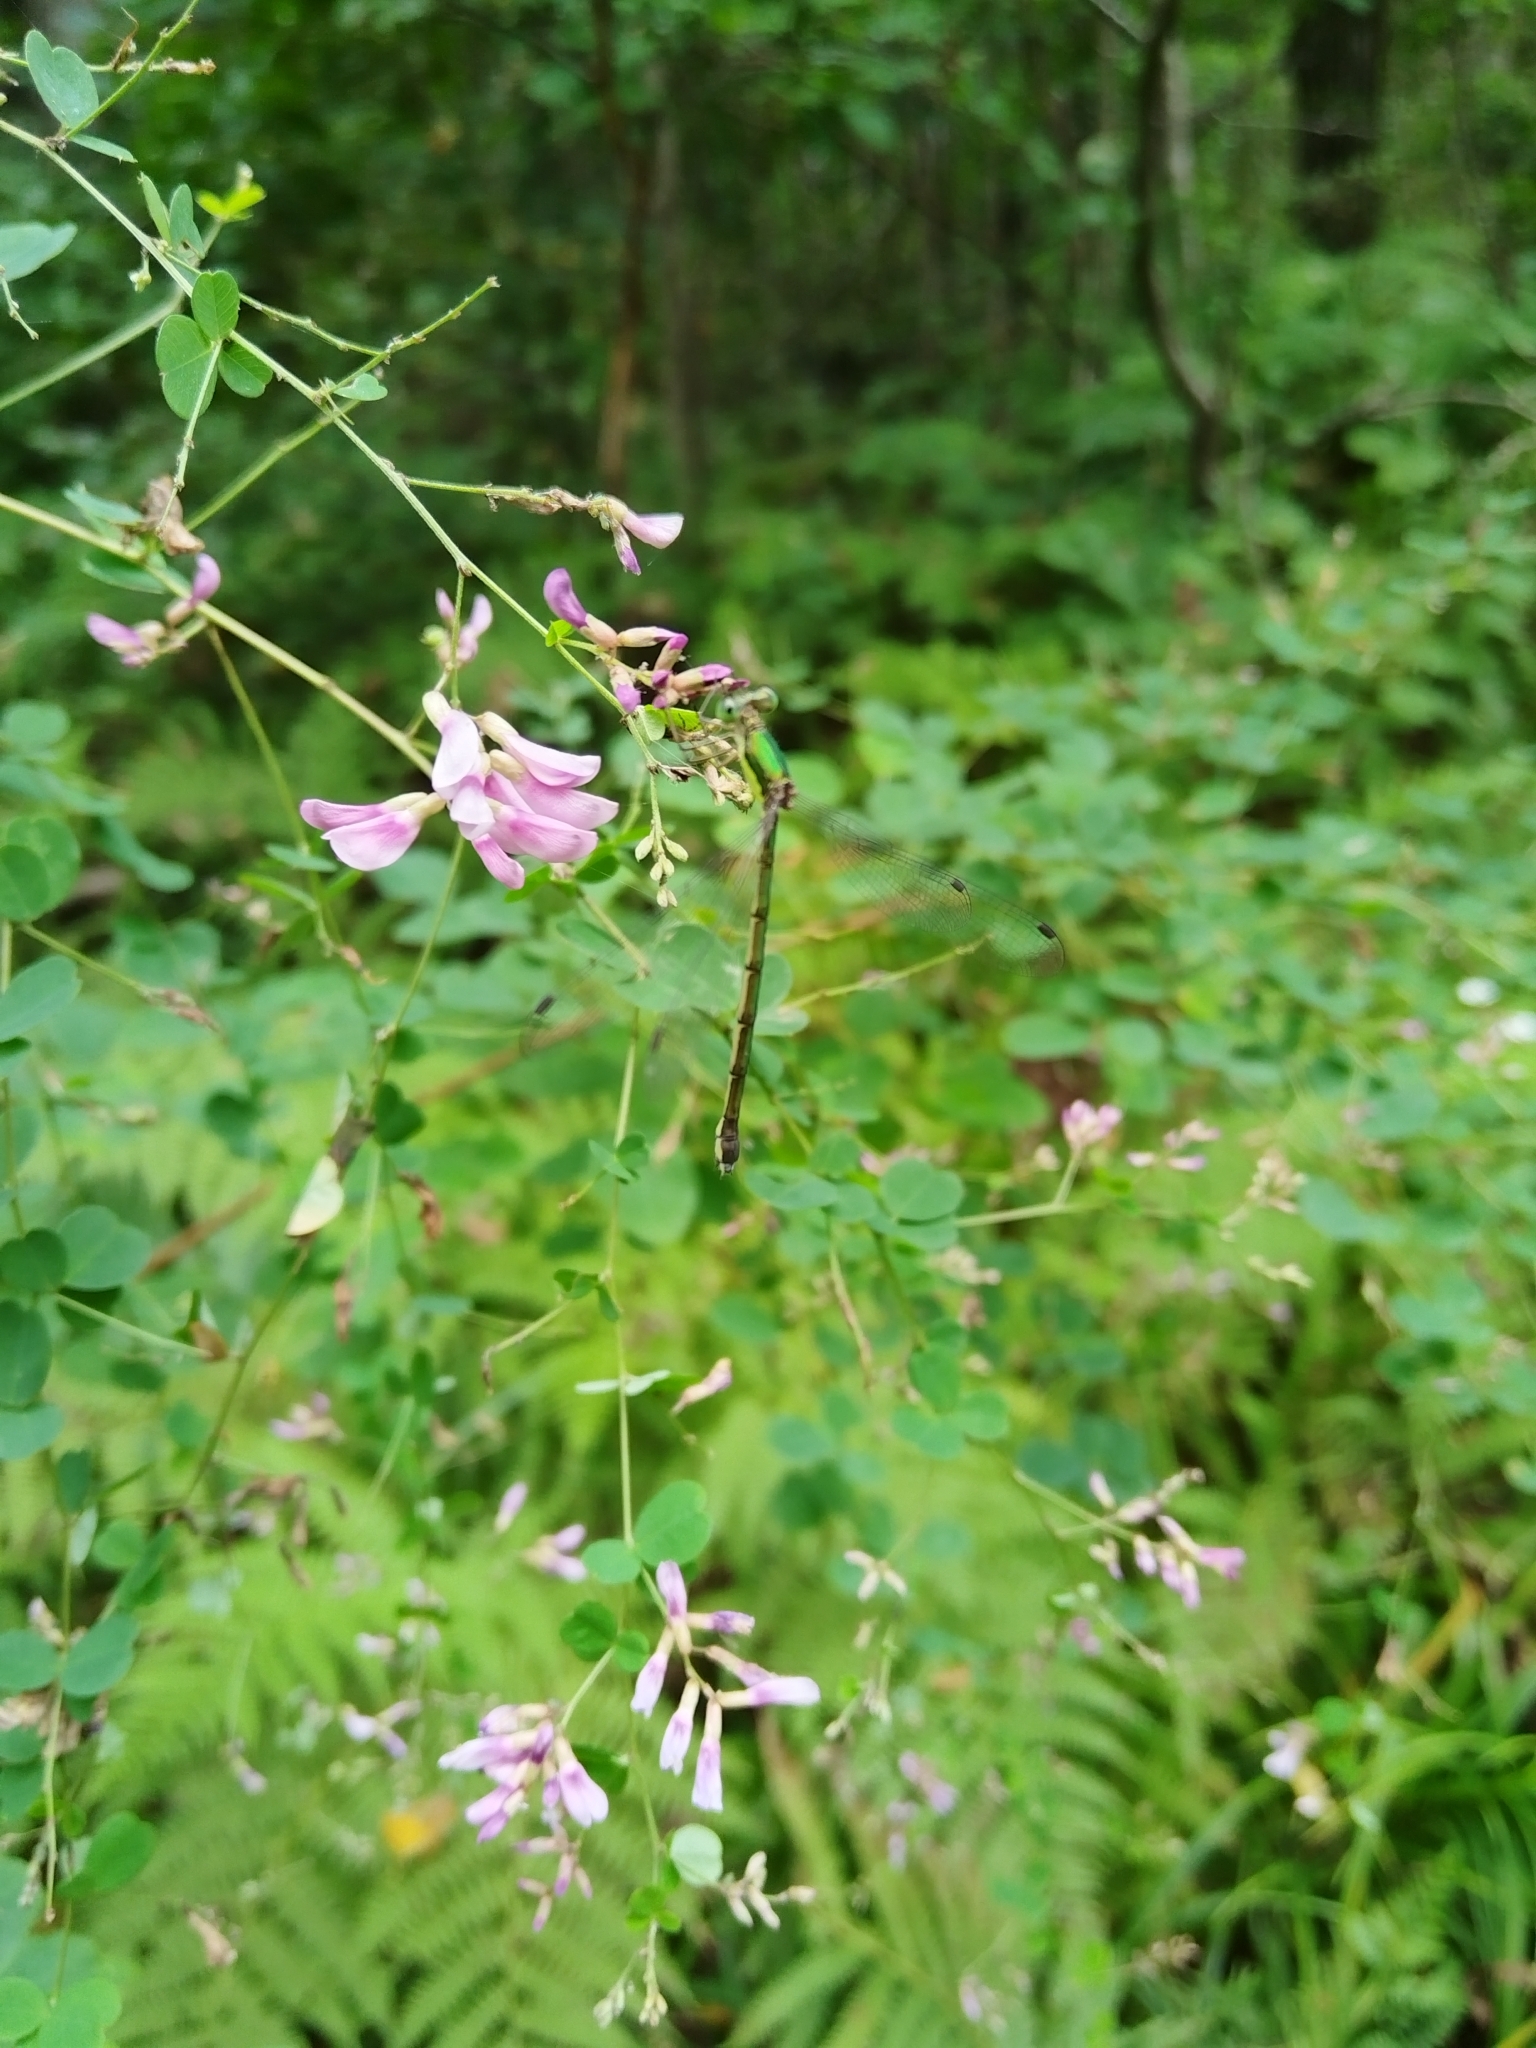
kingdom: Plantae
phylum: Tracheophyta
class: Magnoliopsida
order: Fabales
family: Fabaceae
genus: Lespedeza
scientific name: Lespedeza bicolor
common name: Shrub lespedeza
